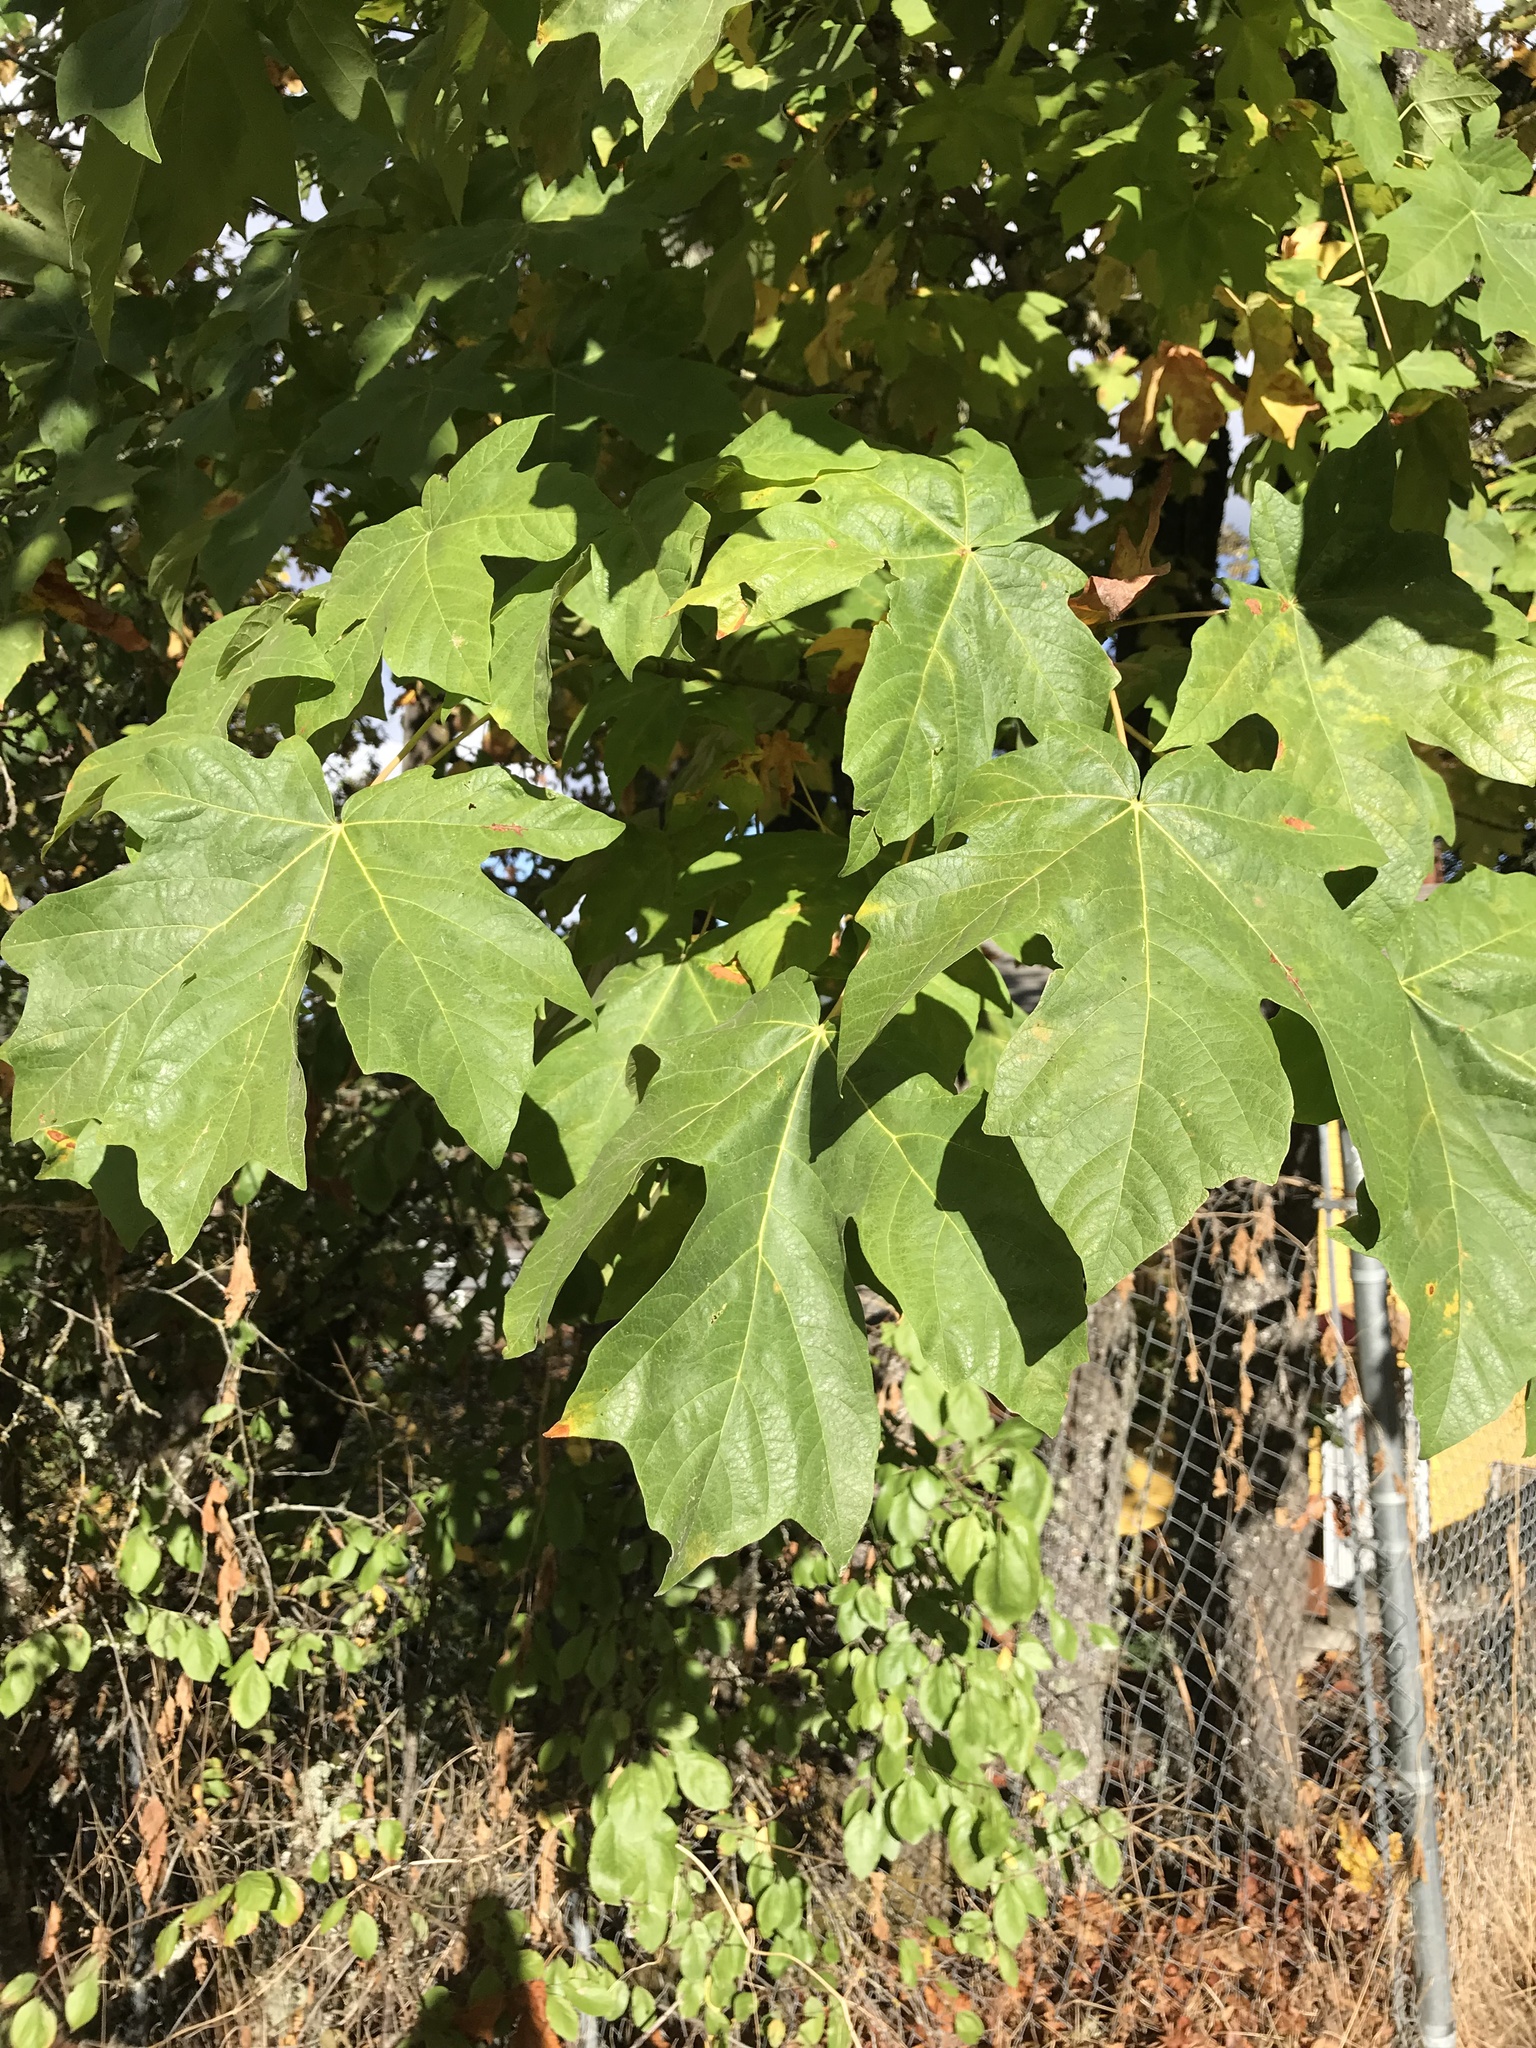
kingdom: Plantae
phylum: Tracheophyta
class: Magnoliopsida
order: Sapindales
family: Sapindaceae
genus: Acer
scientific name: Acer macrophyllum
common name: Oregon maple
